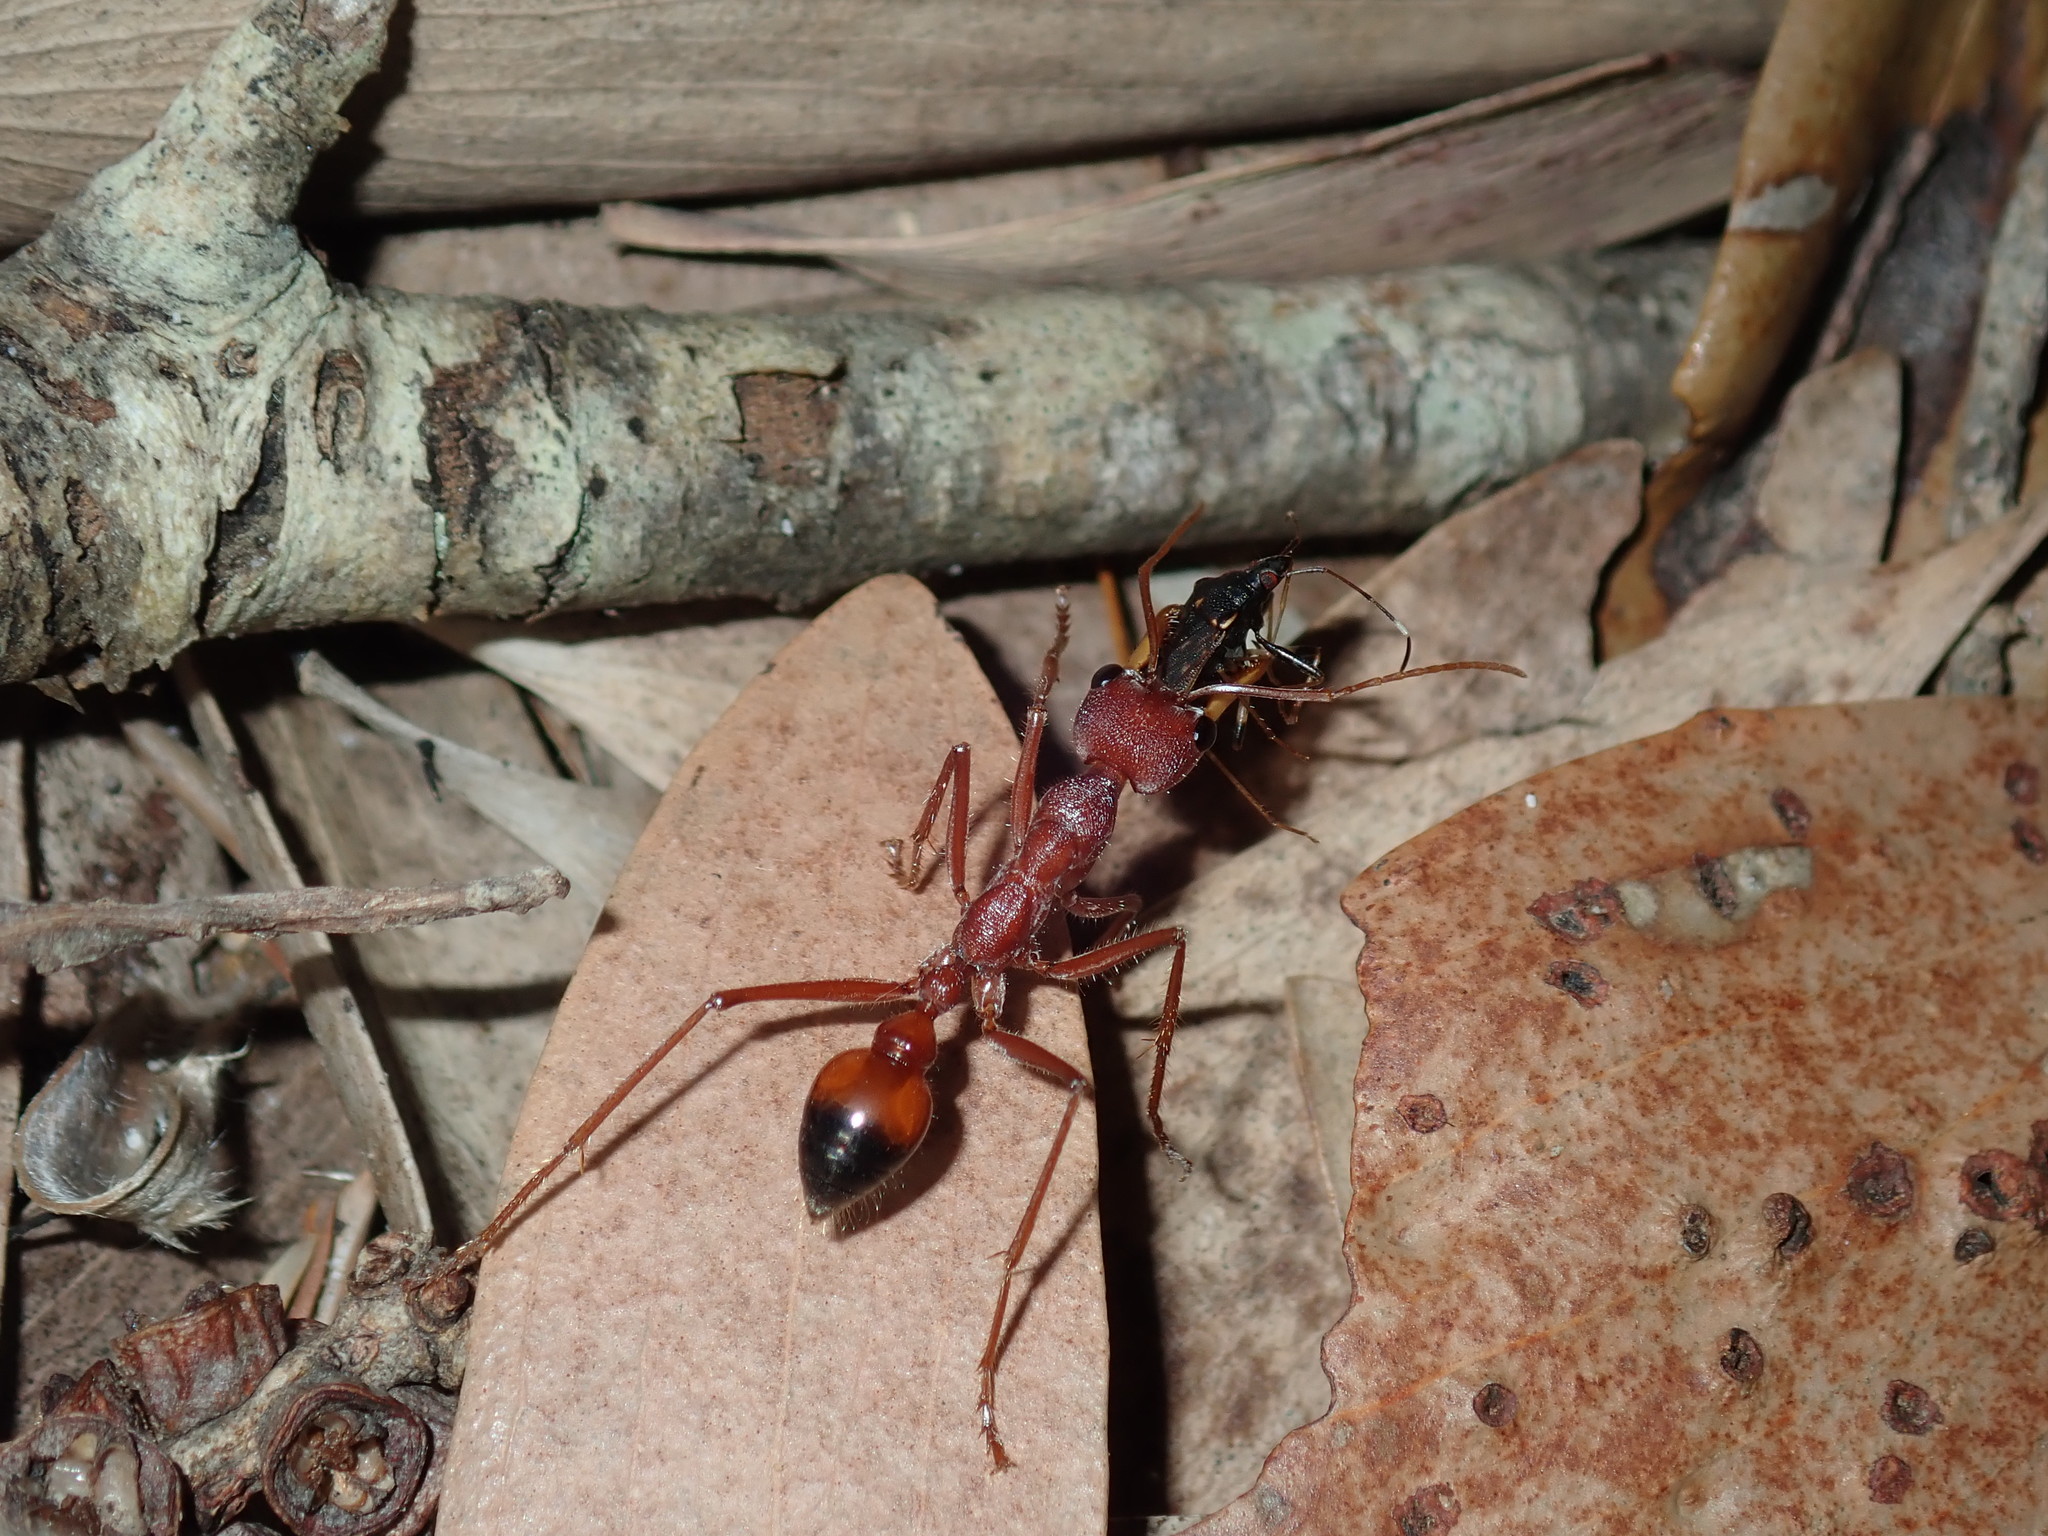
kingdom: Animalia
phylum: Arthropoda
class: Insecta
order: Hymenoptera
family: Formicidae
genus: Myrmecia
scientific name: Myrmecia gulosa
